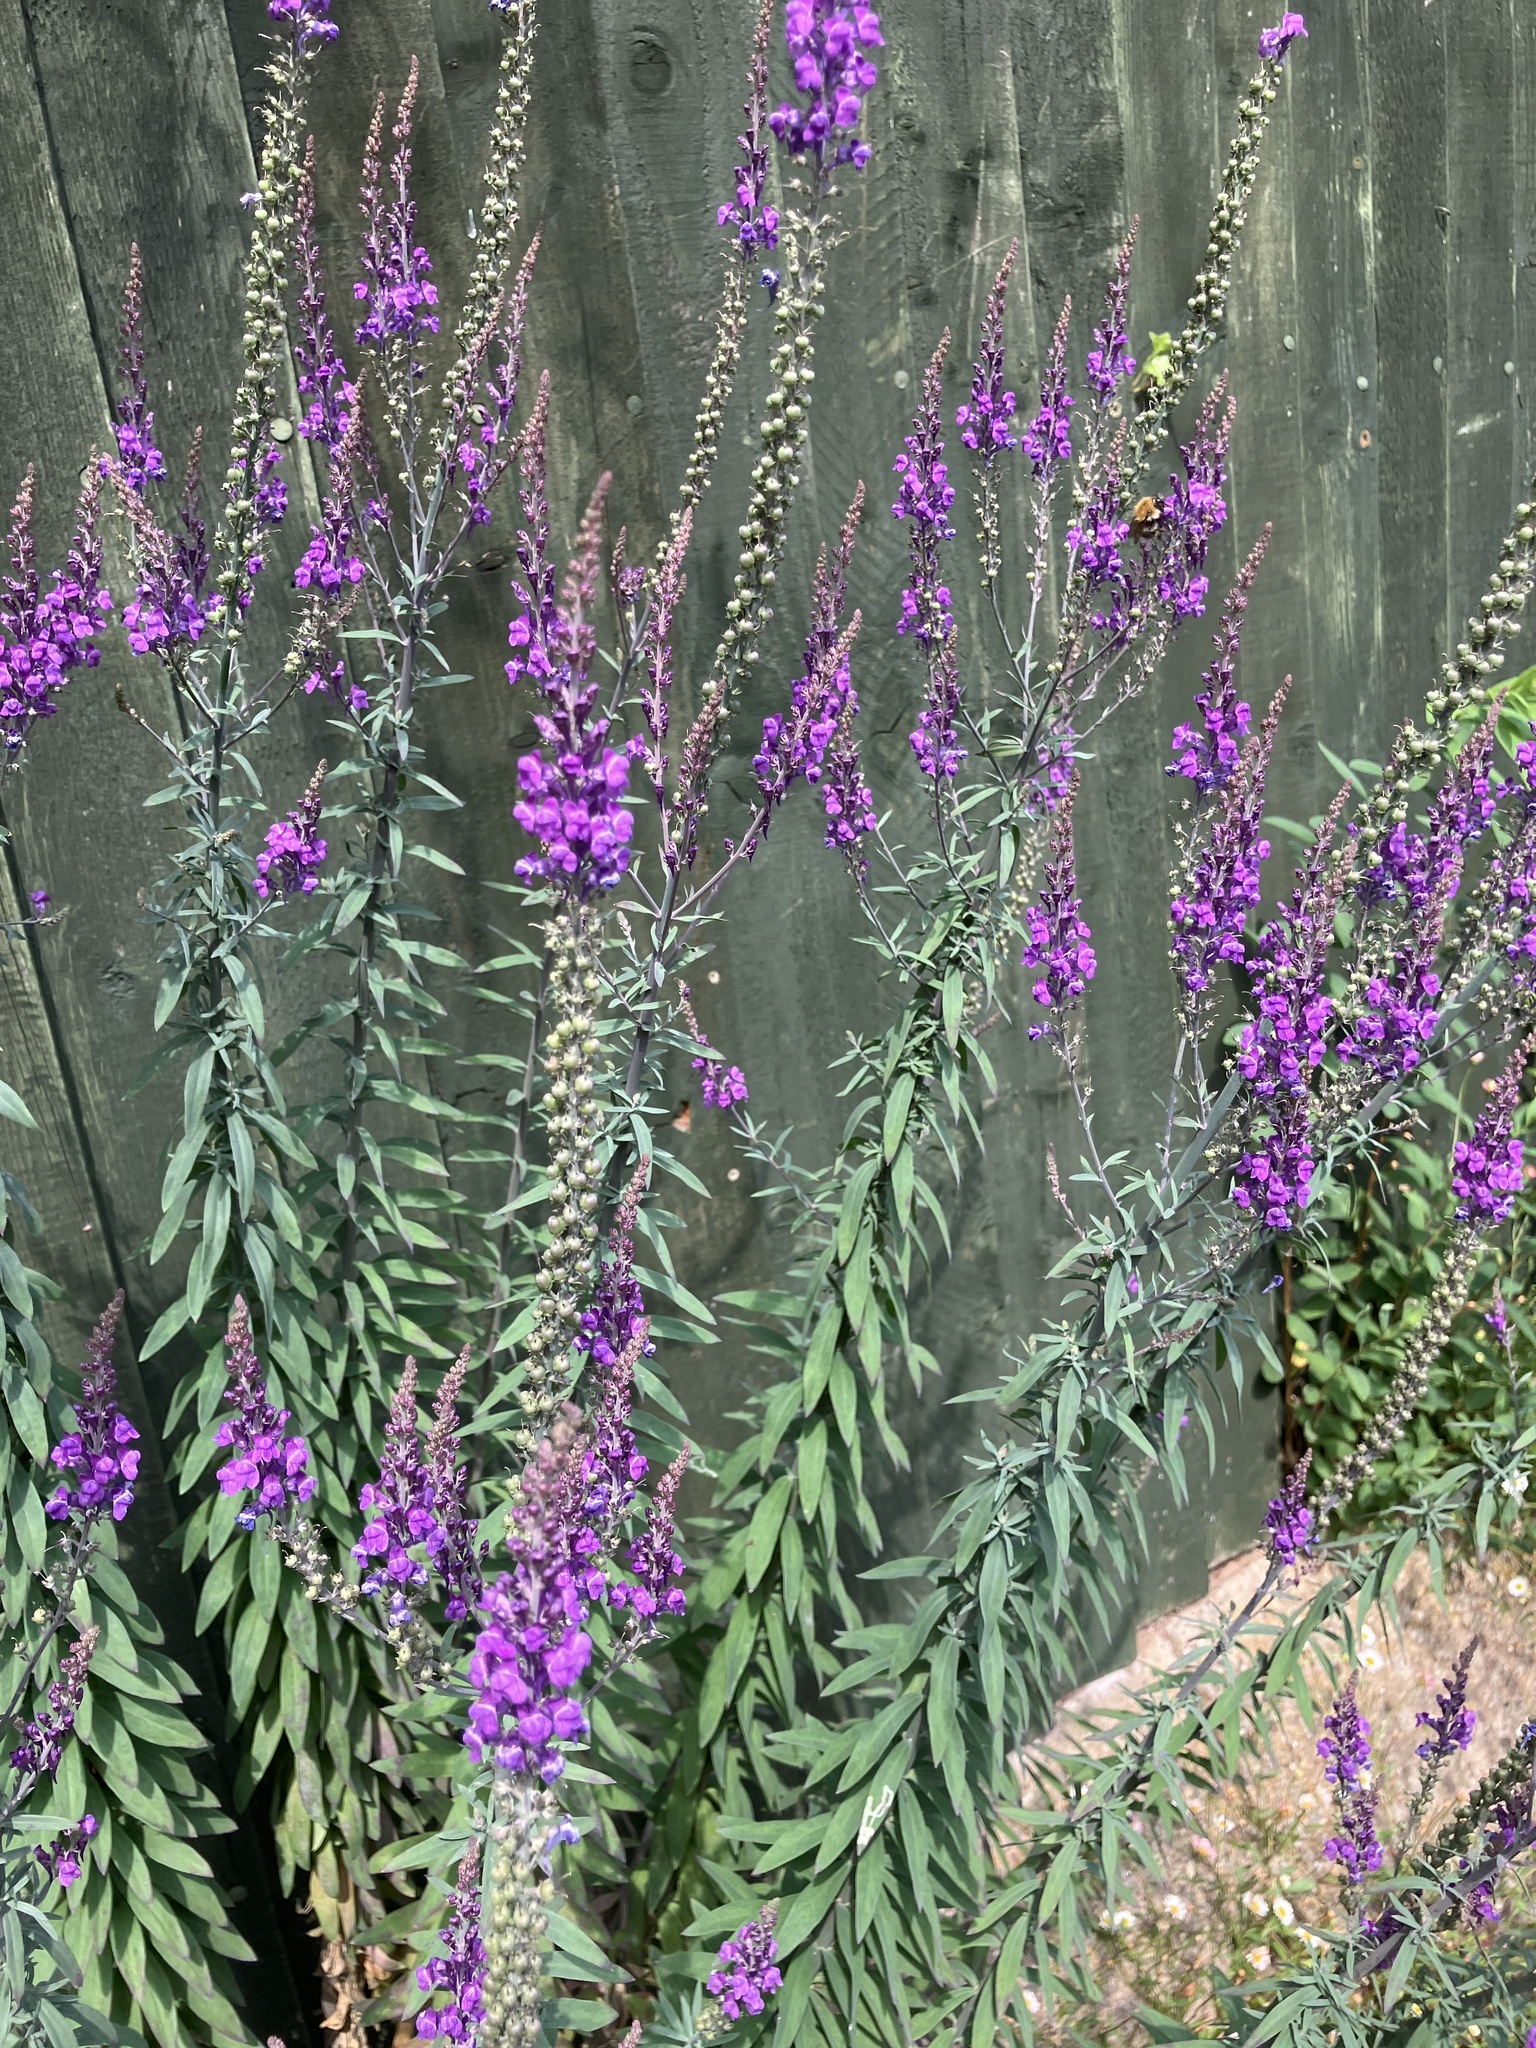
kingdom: Plantae
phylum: Tracheophyta
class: Magnoliopsida
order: Lamiales
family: Plantaginaceae
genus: Linaria
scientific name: Linaria purpurea
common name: Purple toadflax
